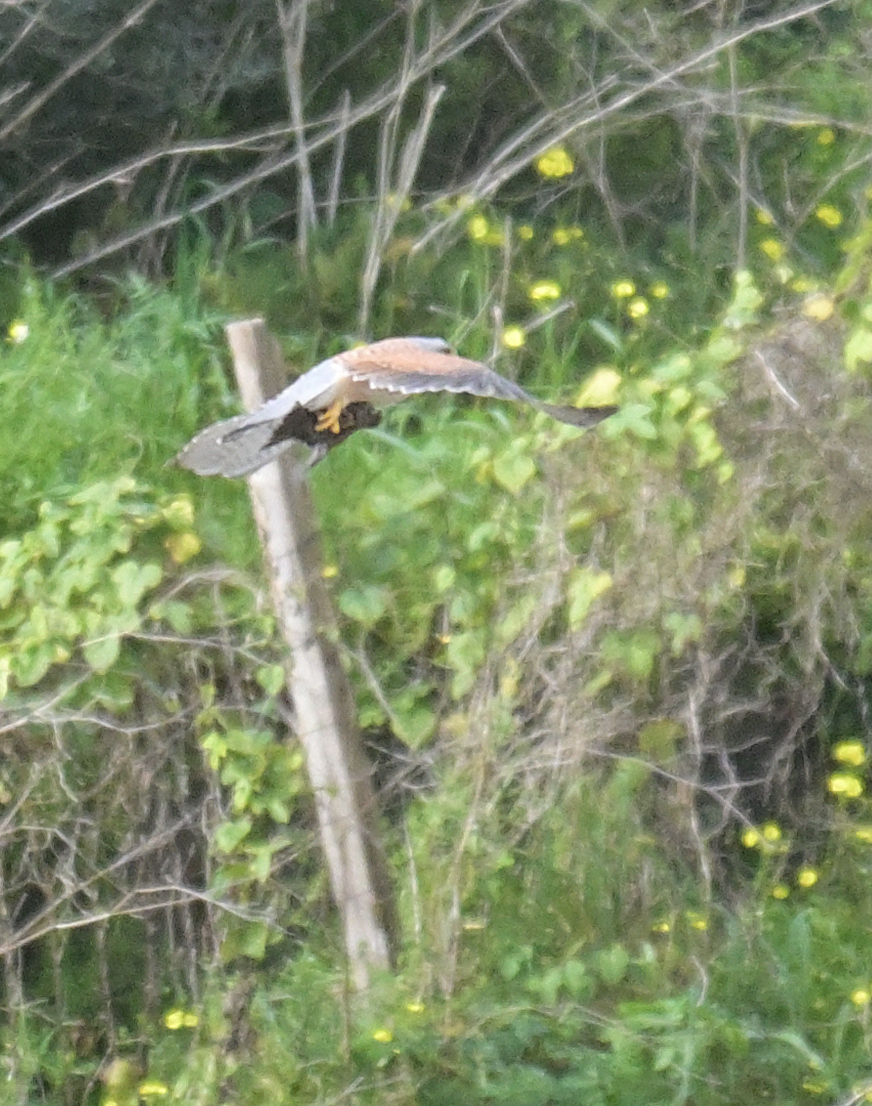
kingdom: Animalia
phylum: Chordata
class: Aves
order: Falconiformes
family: Falconidae
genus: Falco
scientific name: Falco tinnunculus
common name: Common kestrel
